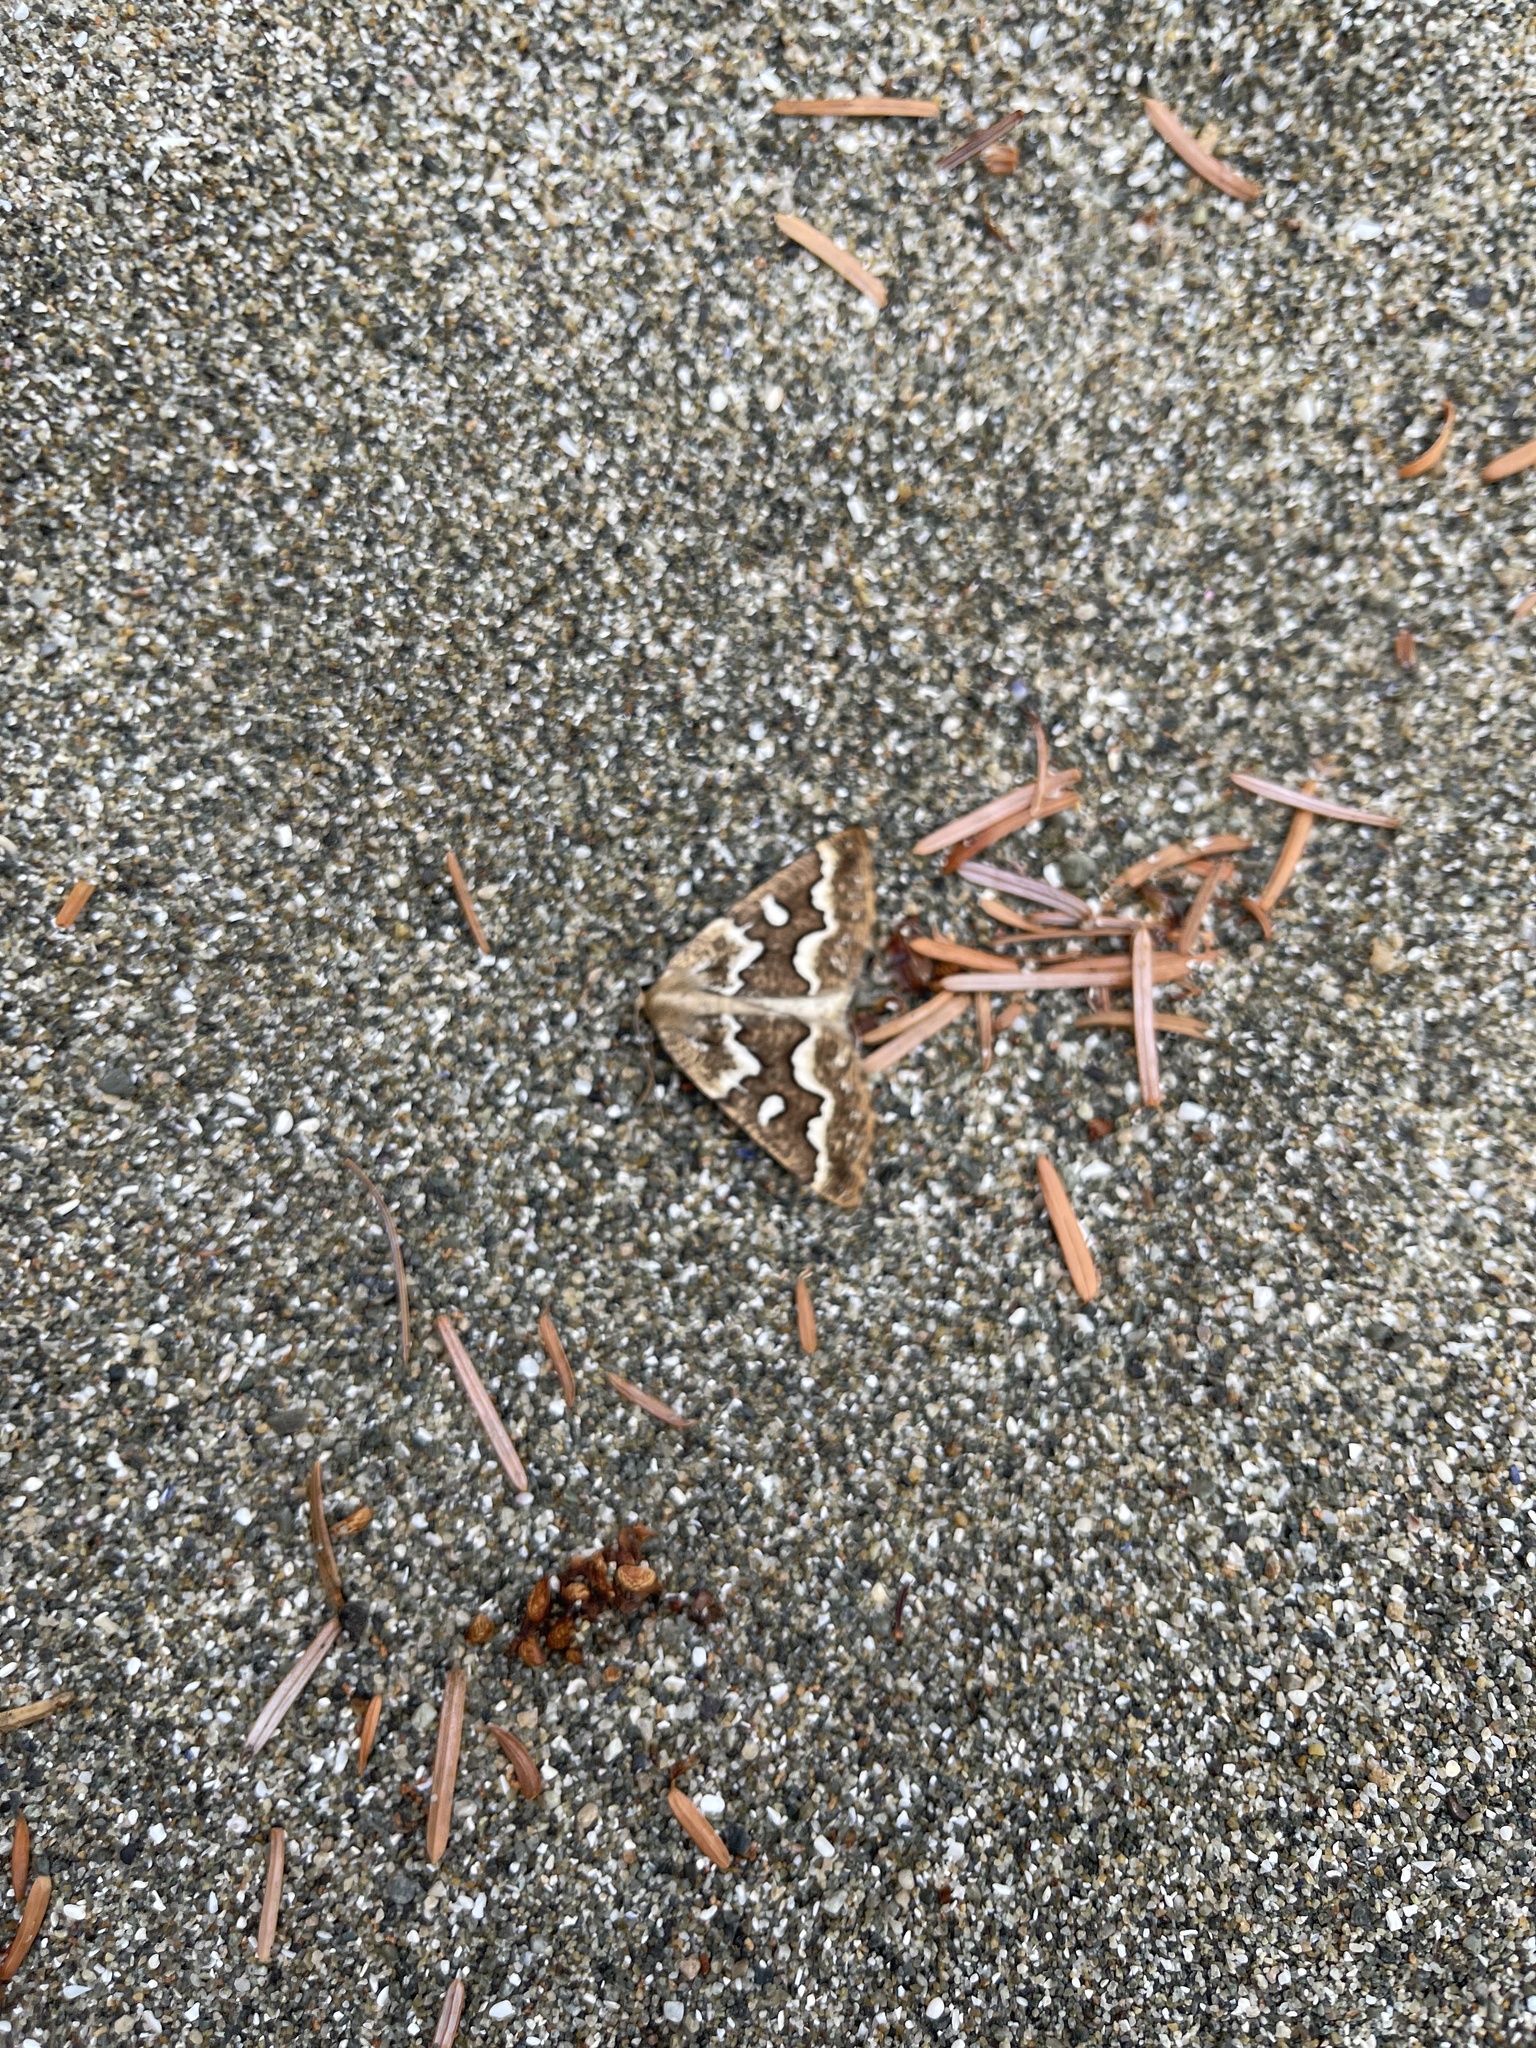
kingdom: Animalia
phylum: Arthropoda
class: Insecta
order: Lepidoptera
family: Geometridae
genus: Caripeta
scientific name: Caripeta divisata
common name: Gray spruce looper
